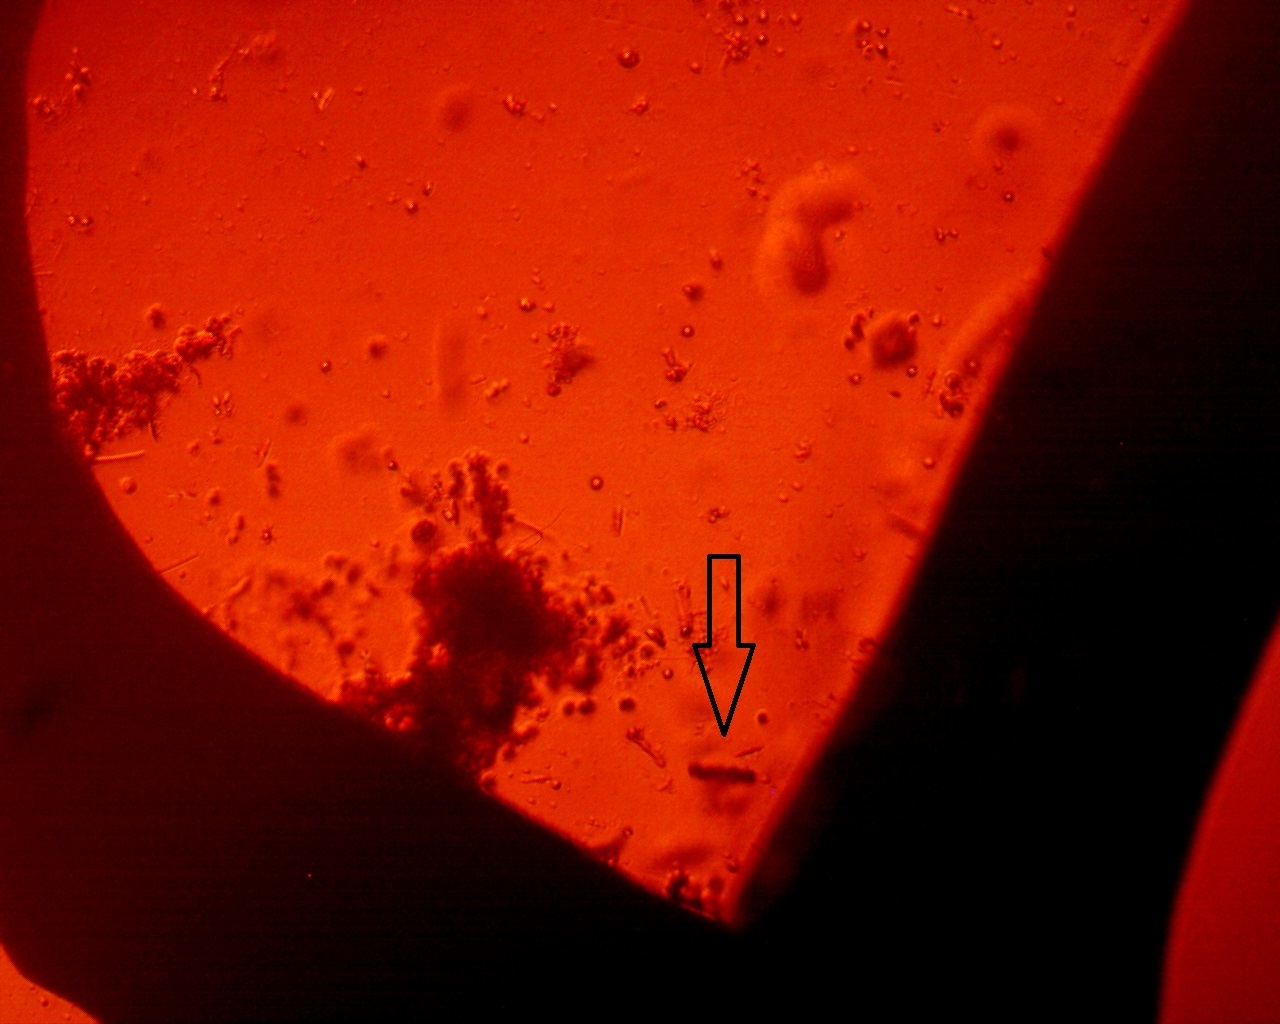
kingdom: Plantae
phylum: Chlorophyta
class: Chlorophyceae
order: Volvocales
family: Goniaceae
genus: Gonium
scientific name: Gonium pectorale
